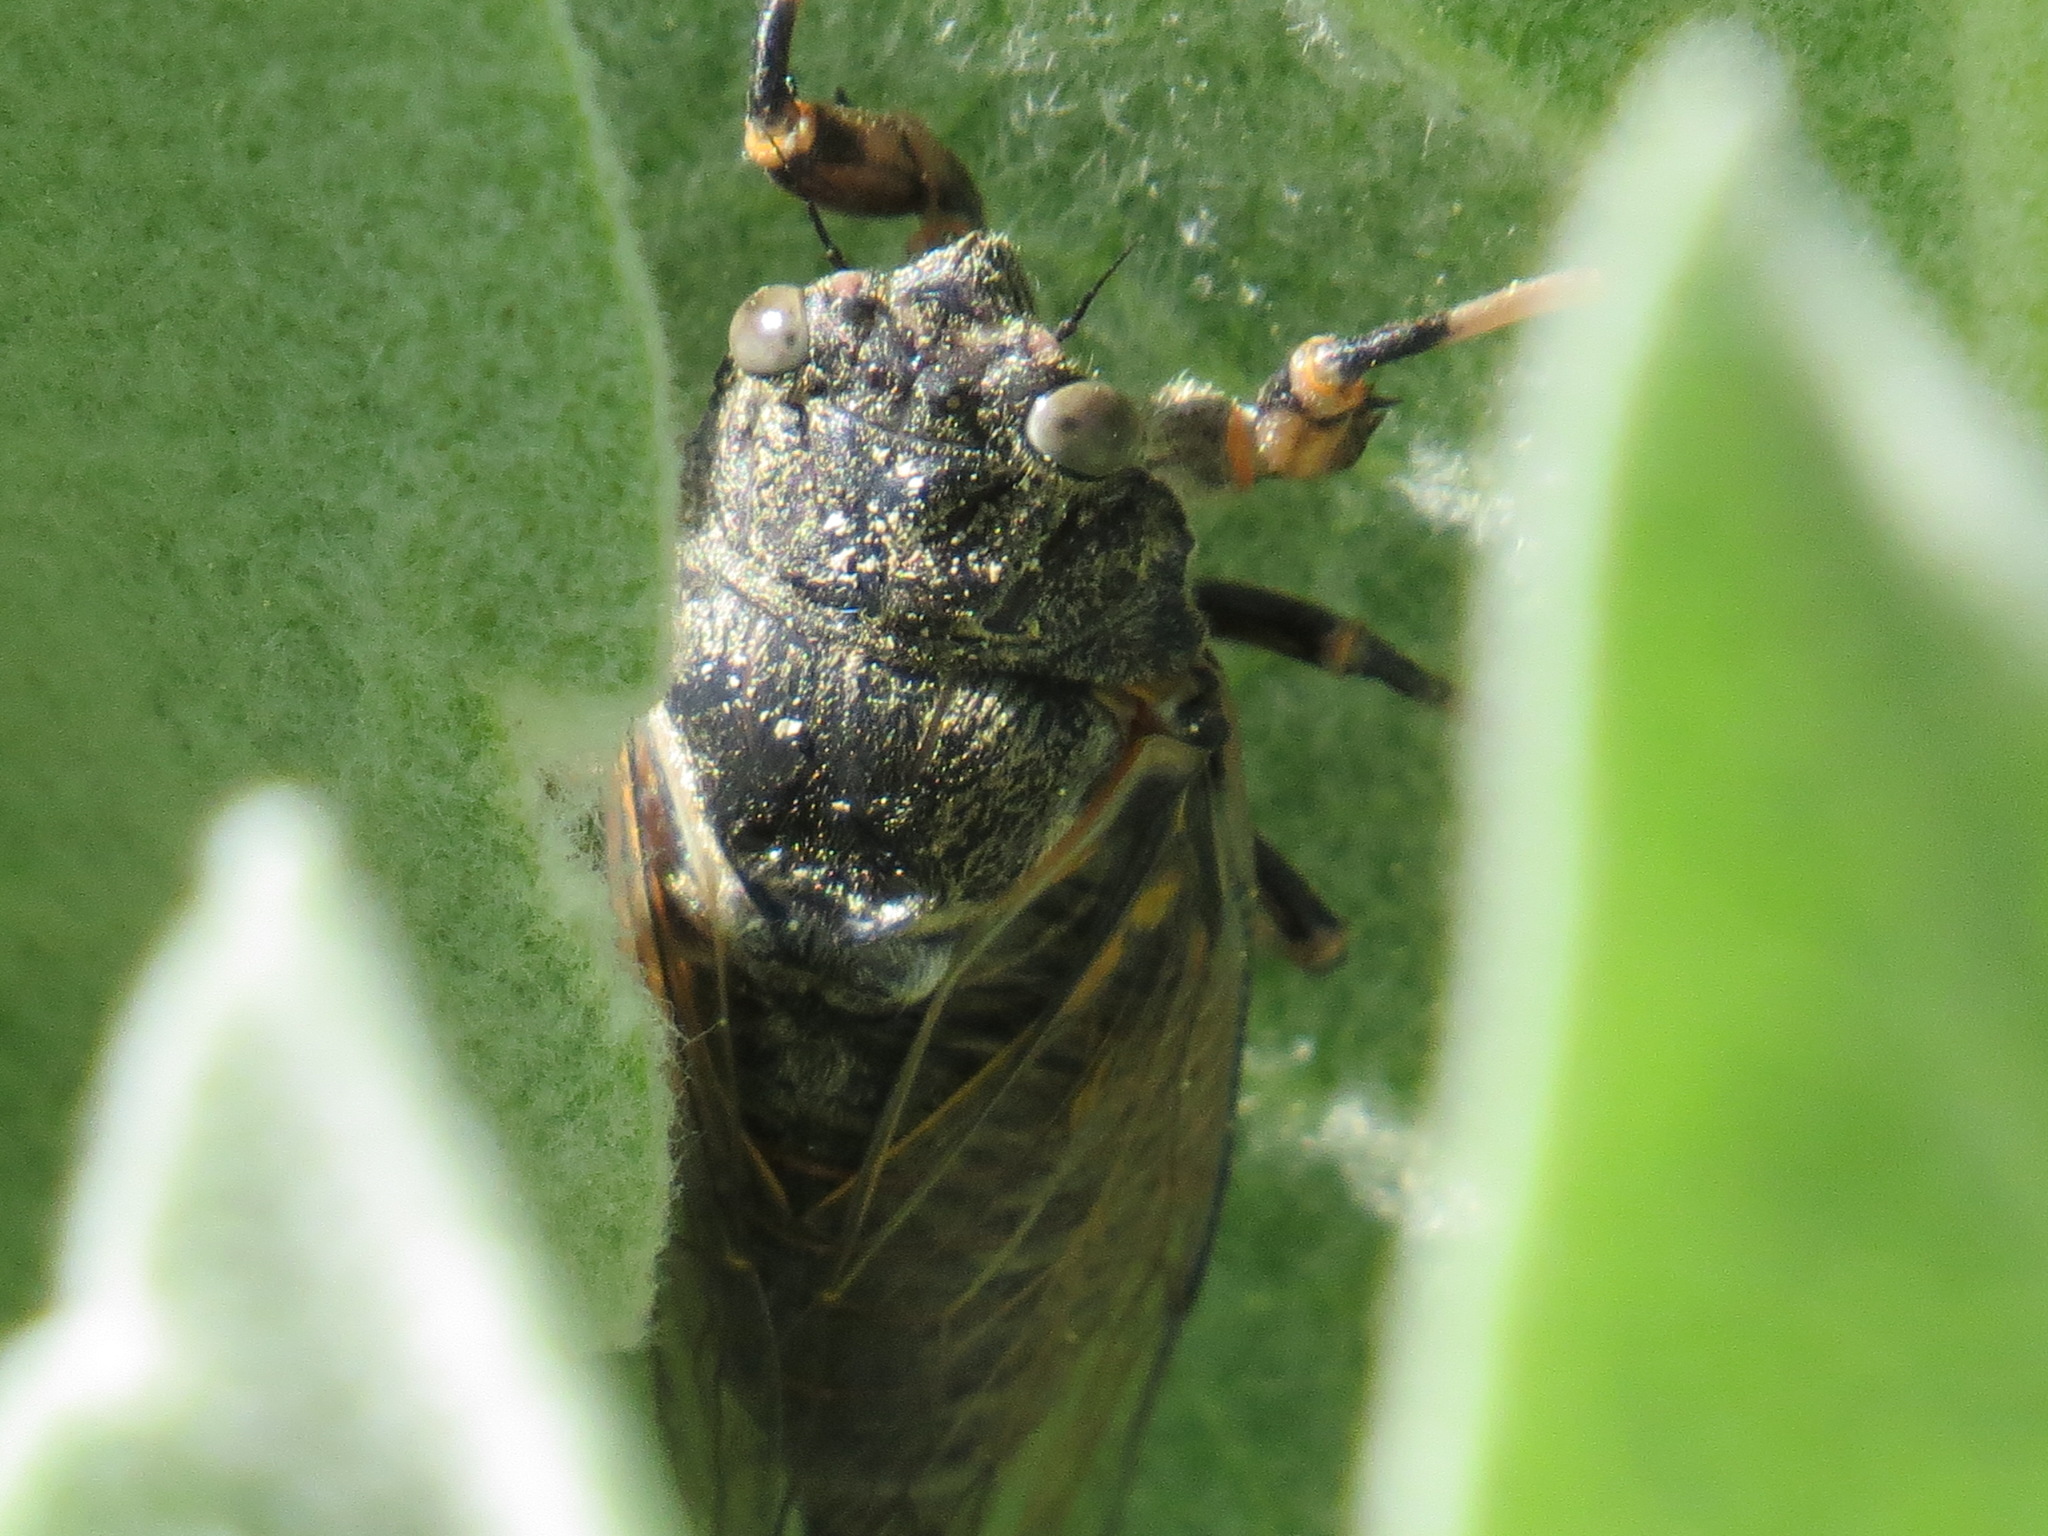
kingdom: Animalia
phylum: Arthropoda
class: Insecta
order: Hemiptera
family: Cicadidae
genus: Okanagana
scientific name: Okanagana nigrodorsata
